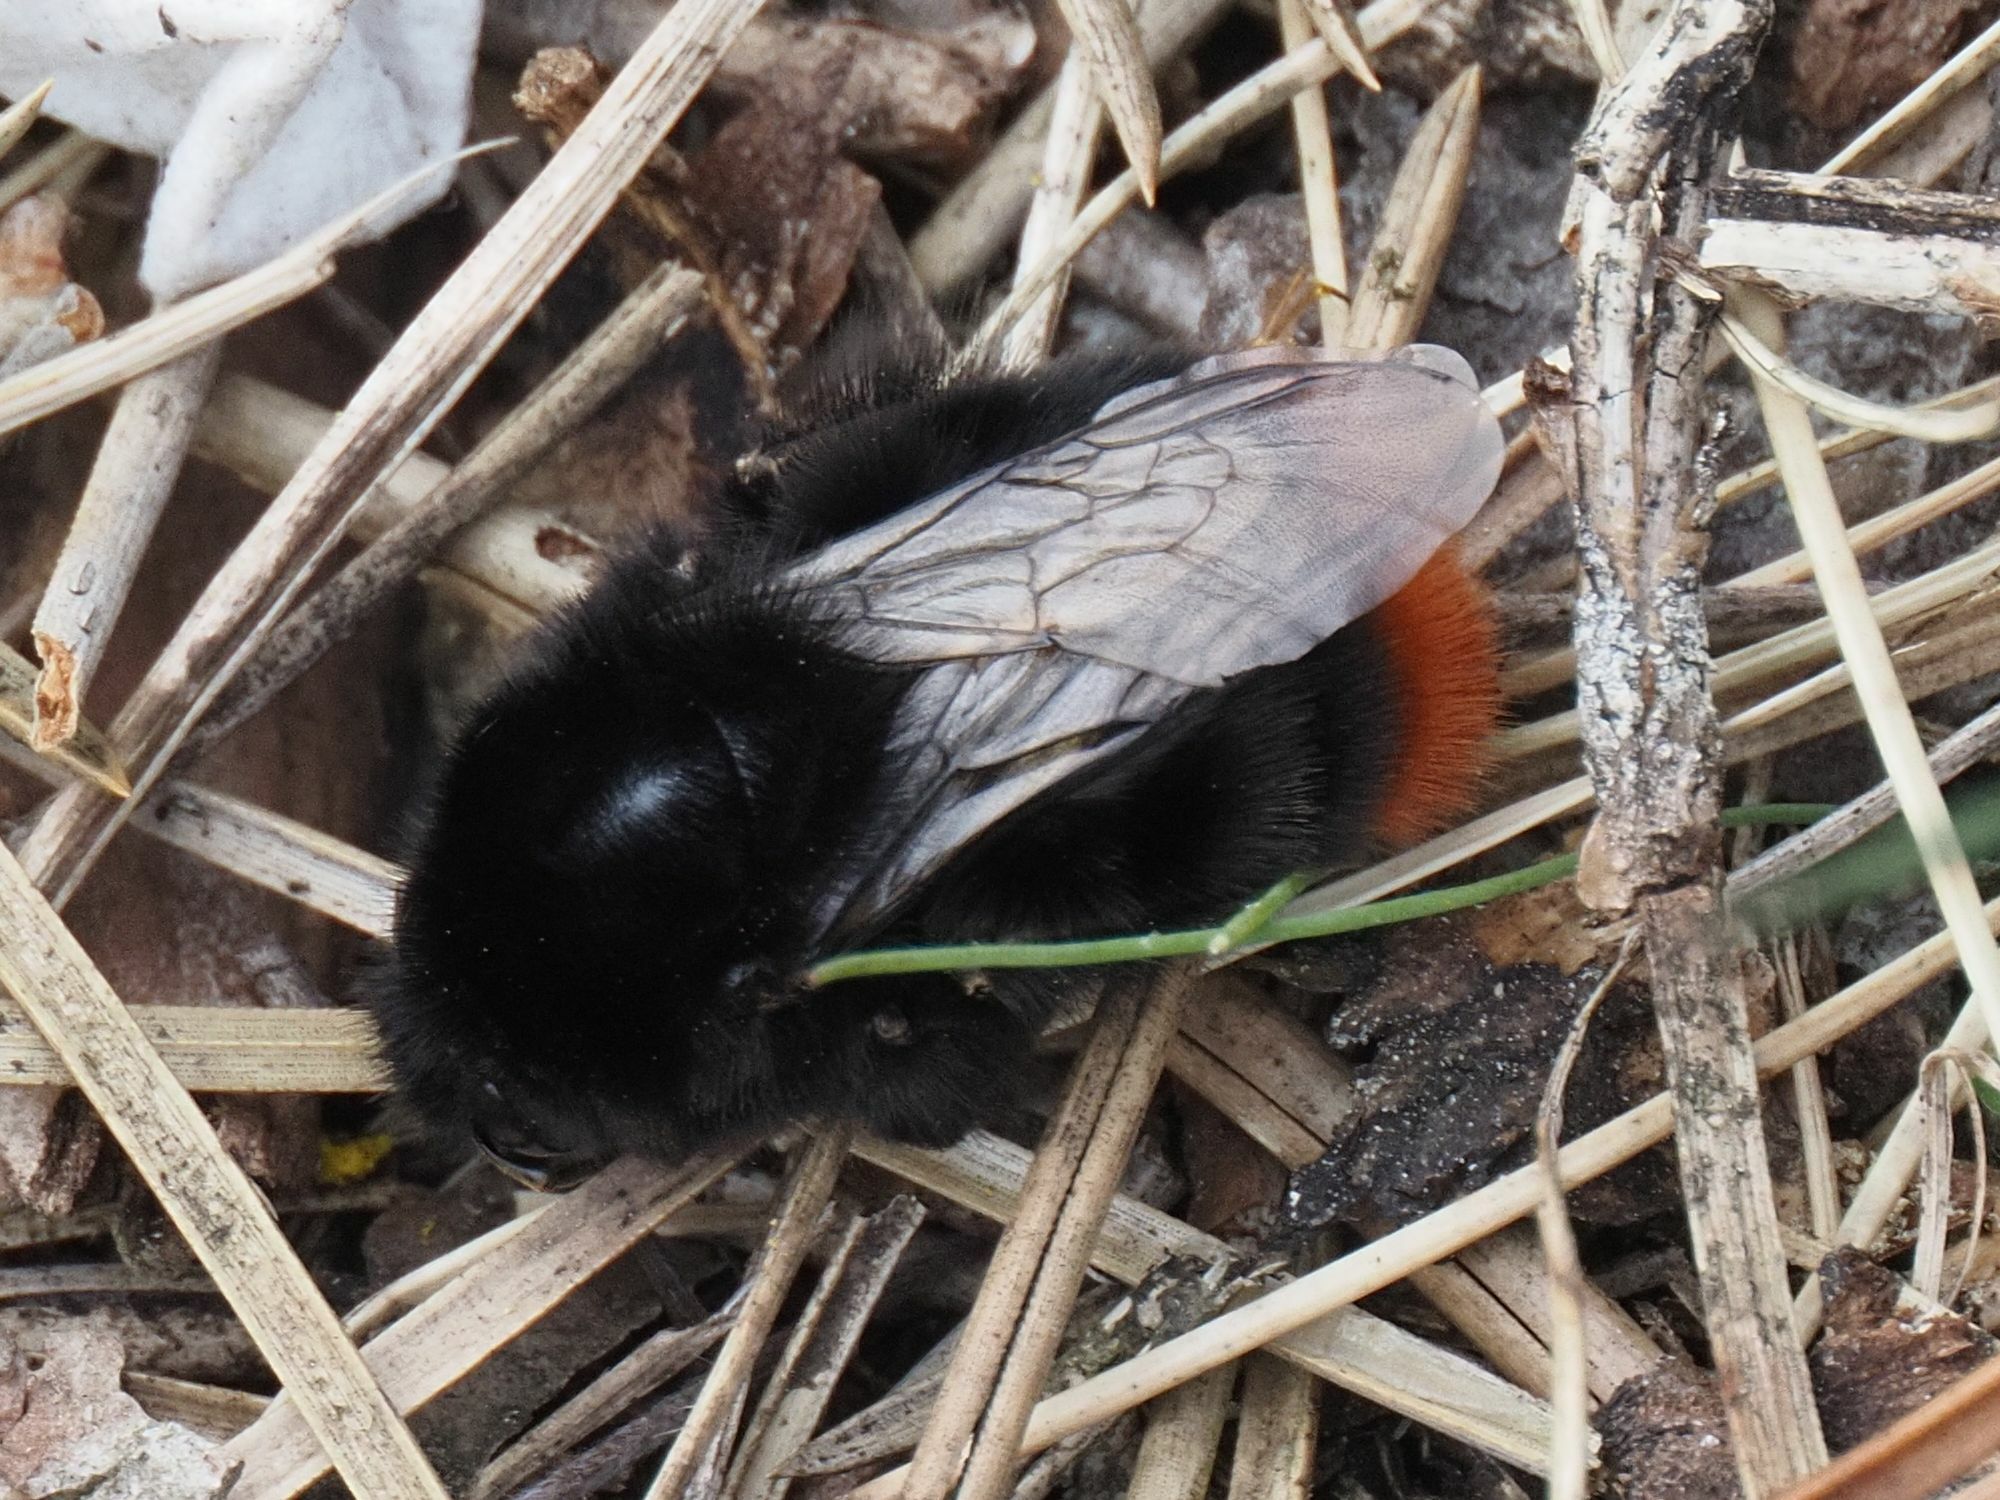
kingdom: Animalia
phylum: Arthropoda
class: Insecta
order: Hymenoptera
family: Apidae
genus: Bombus
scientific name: Bombus lapidarius
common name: Large red-tailed humble-bee
